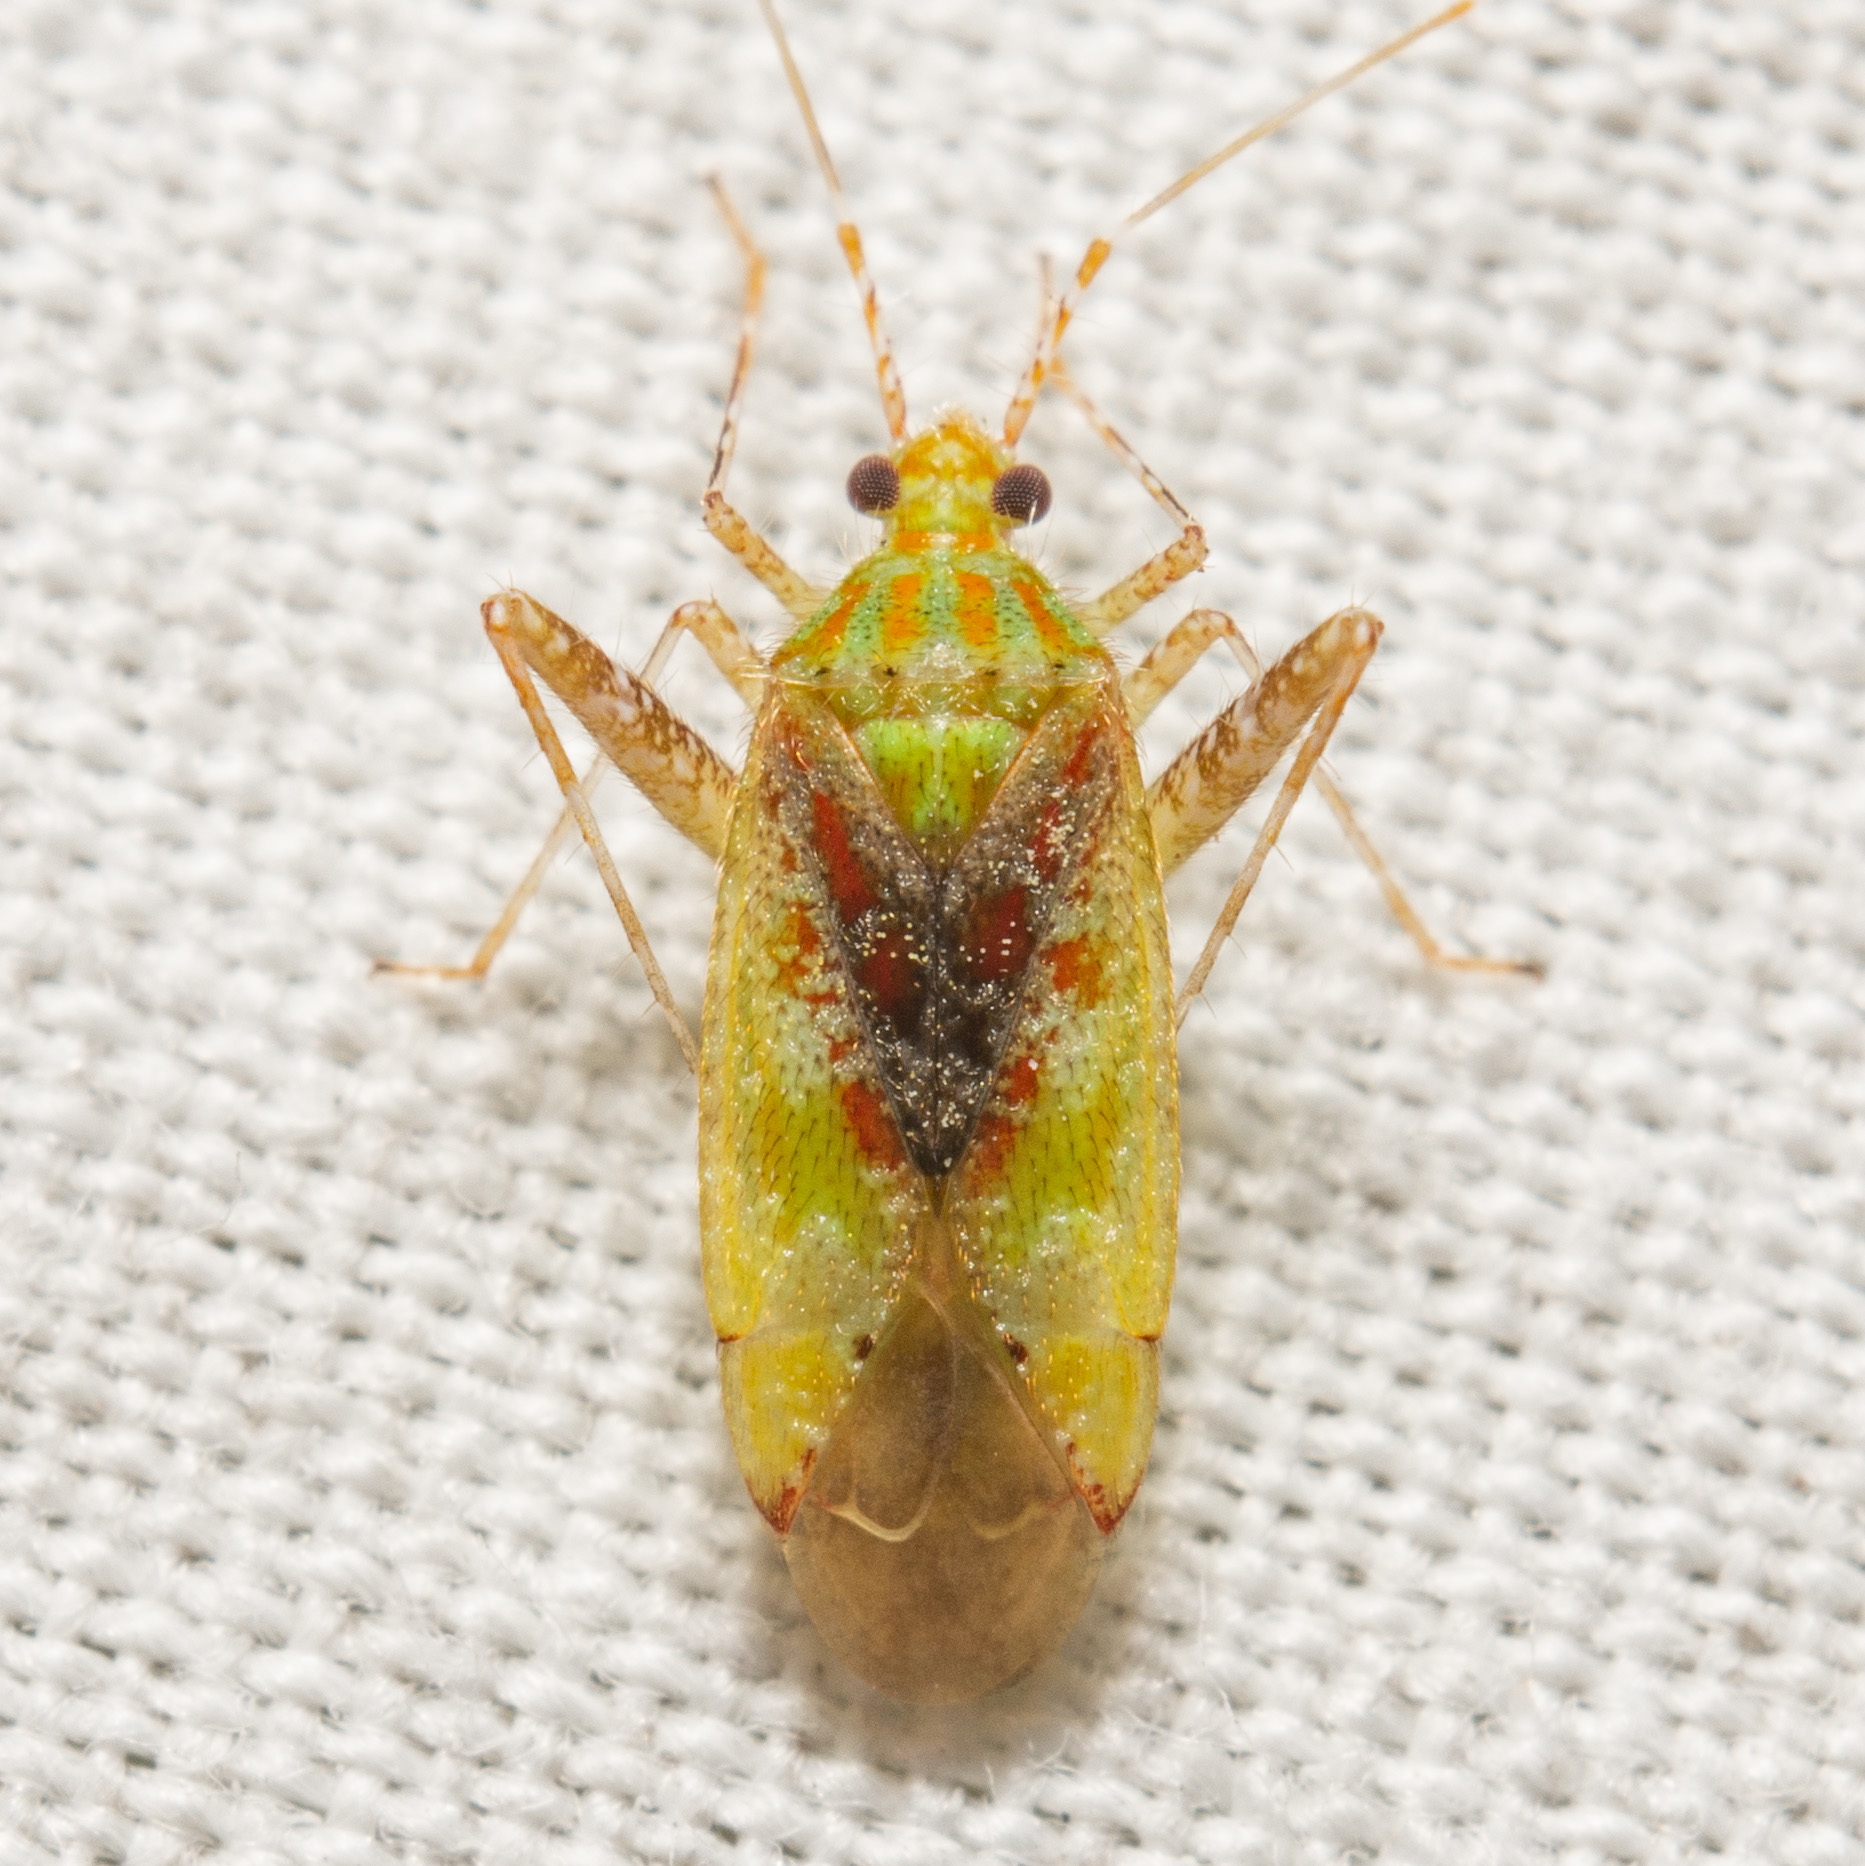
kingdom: Animalia
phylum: Arthropoda
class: Insecta
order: Hemiptera
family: Miridae
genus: Phytocoris
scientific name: Phytocoris tibialis
